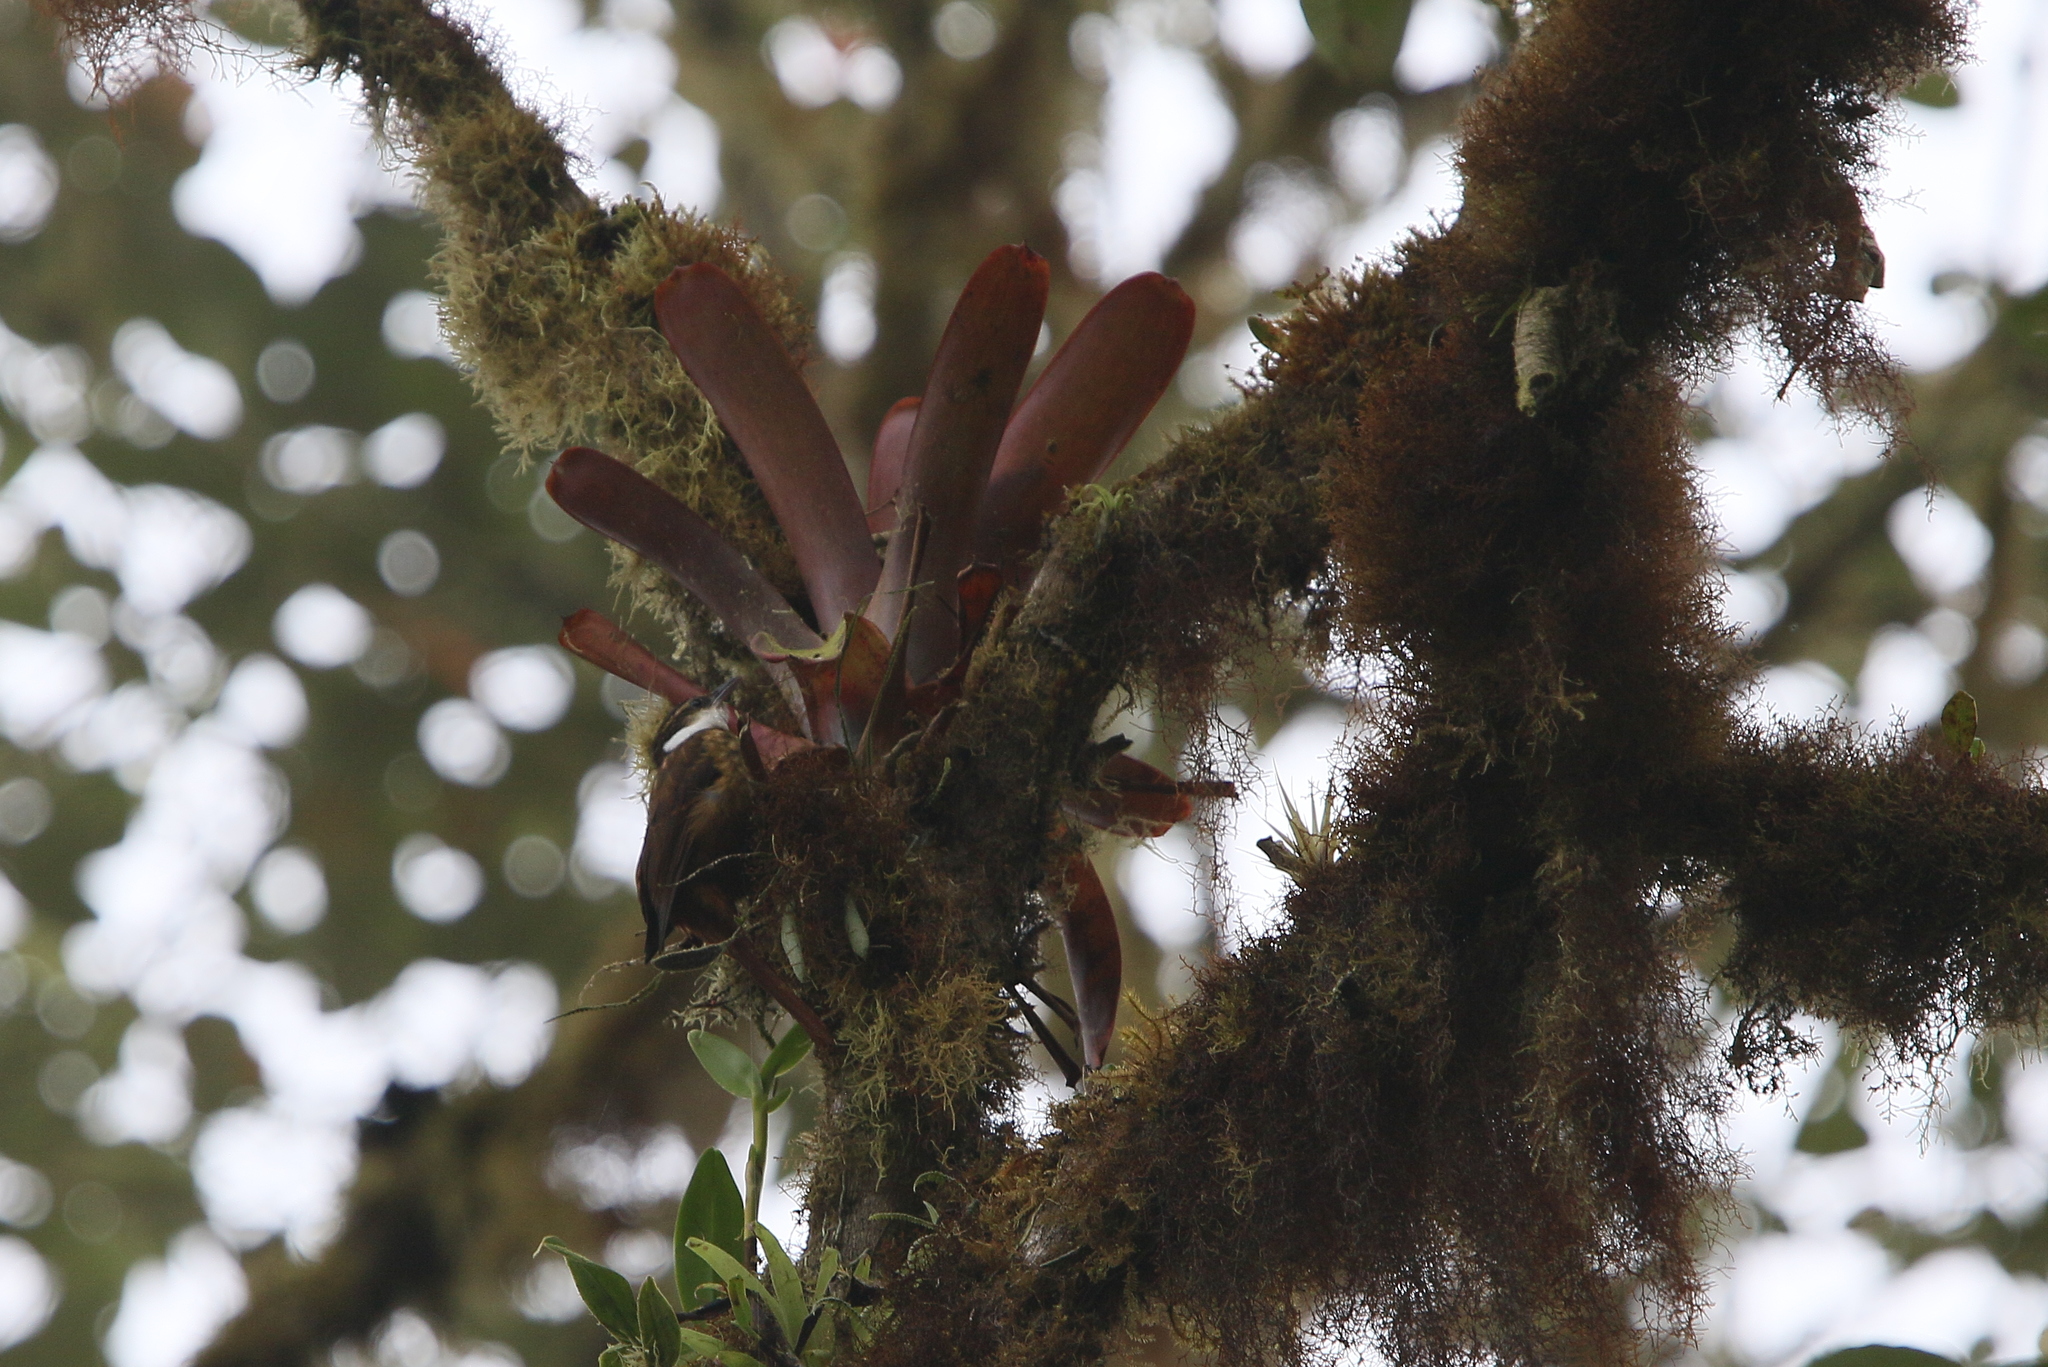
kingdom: Animalia
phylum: Chordata
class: Aves
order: Passeriformes
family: Furnariidae
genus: Pseudocolaptes
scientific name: Pseudocolaptes boissonneautii
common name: Streaked tuftedcheek
